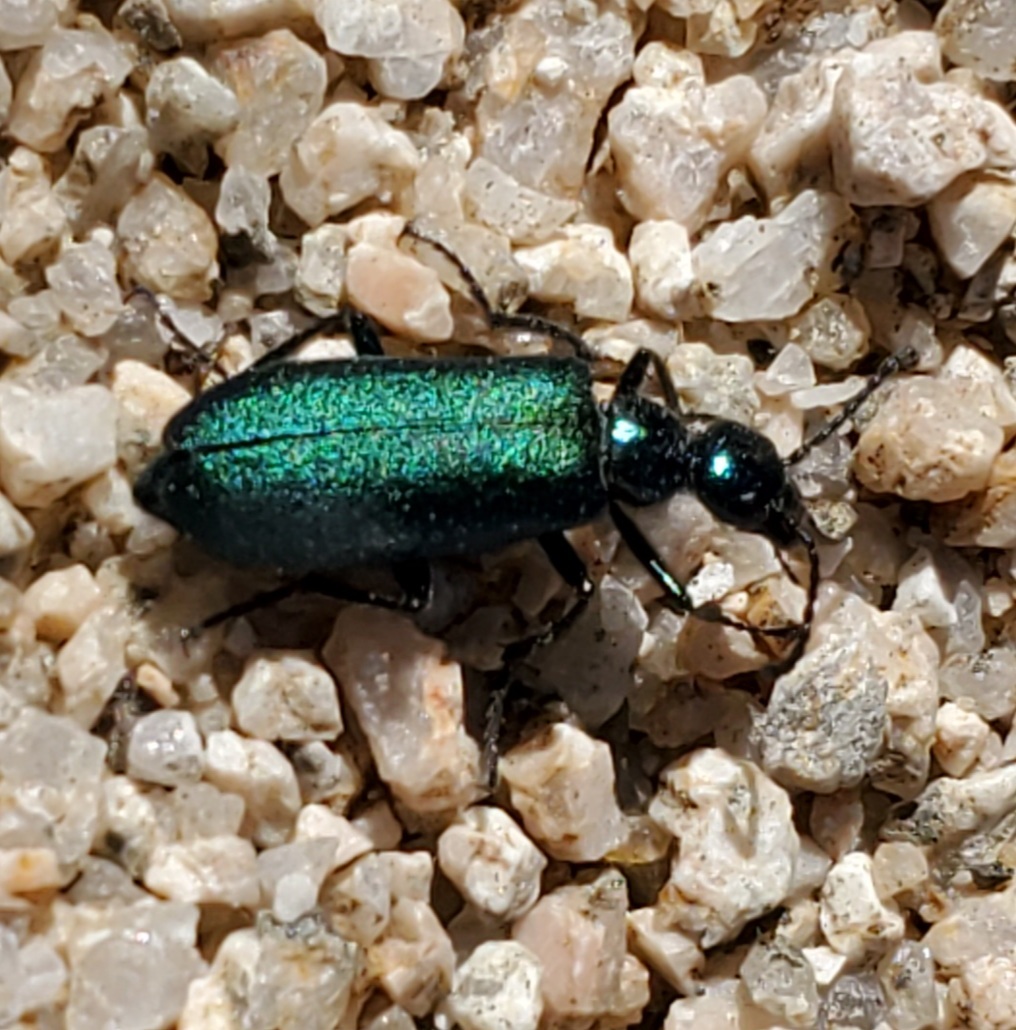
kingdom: Animalia
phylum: Arthropoda
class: Insecta
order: Coleoptera
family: Meloidae
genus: Lytta
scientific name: Lytta stygica
